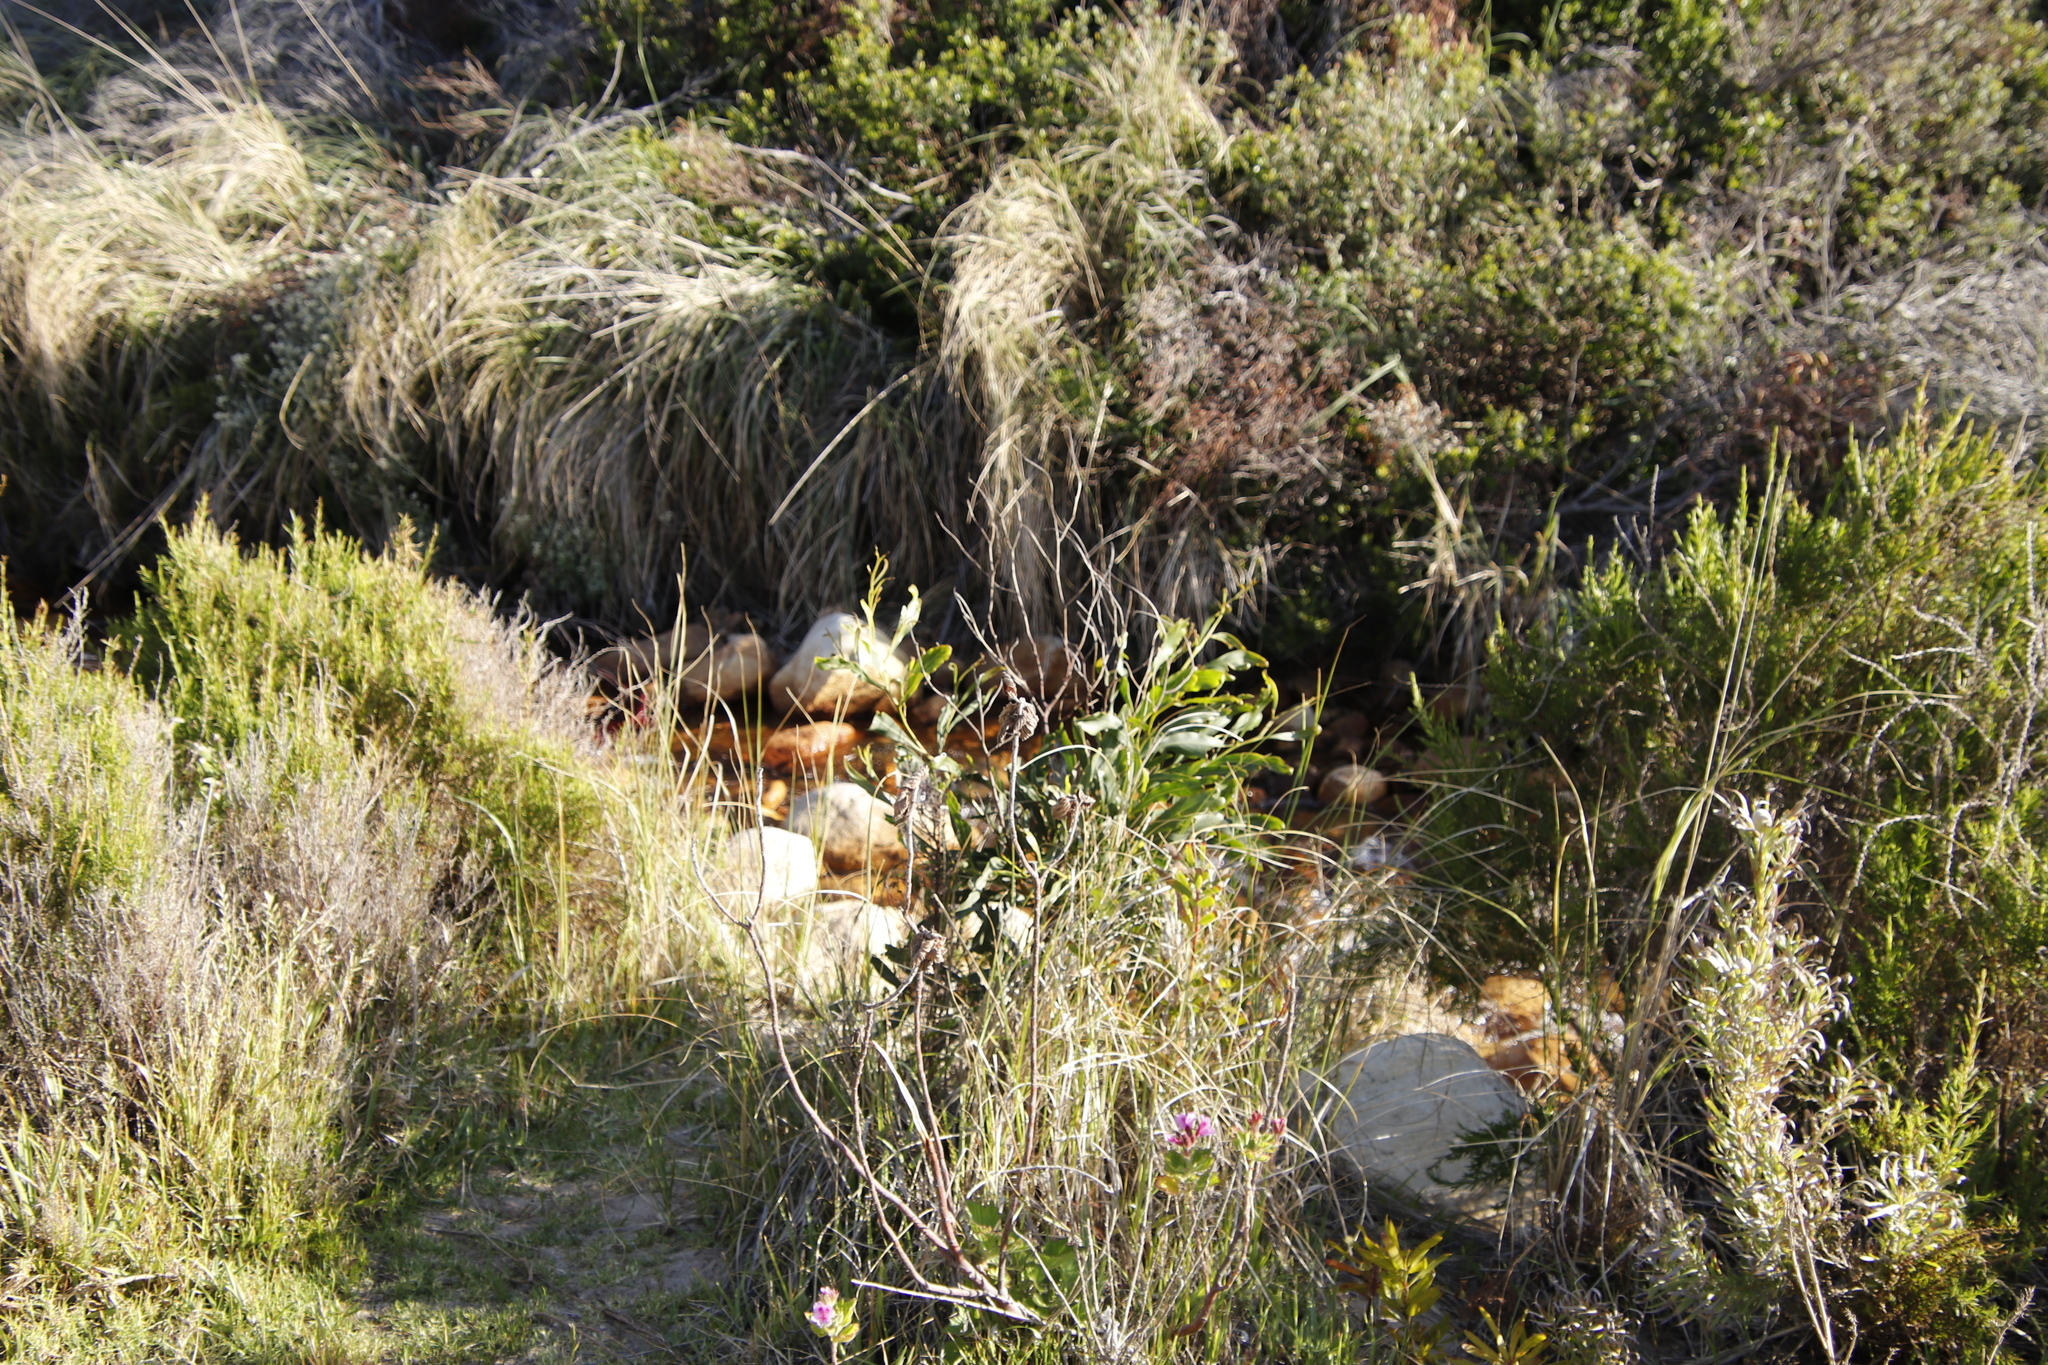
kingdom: Plantae
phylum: Tracheophyta
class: Magnoliopsida
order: Fabales
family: Fabaceae
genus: Acacia
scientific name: Acacia saligna
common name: Orange wattle
